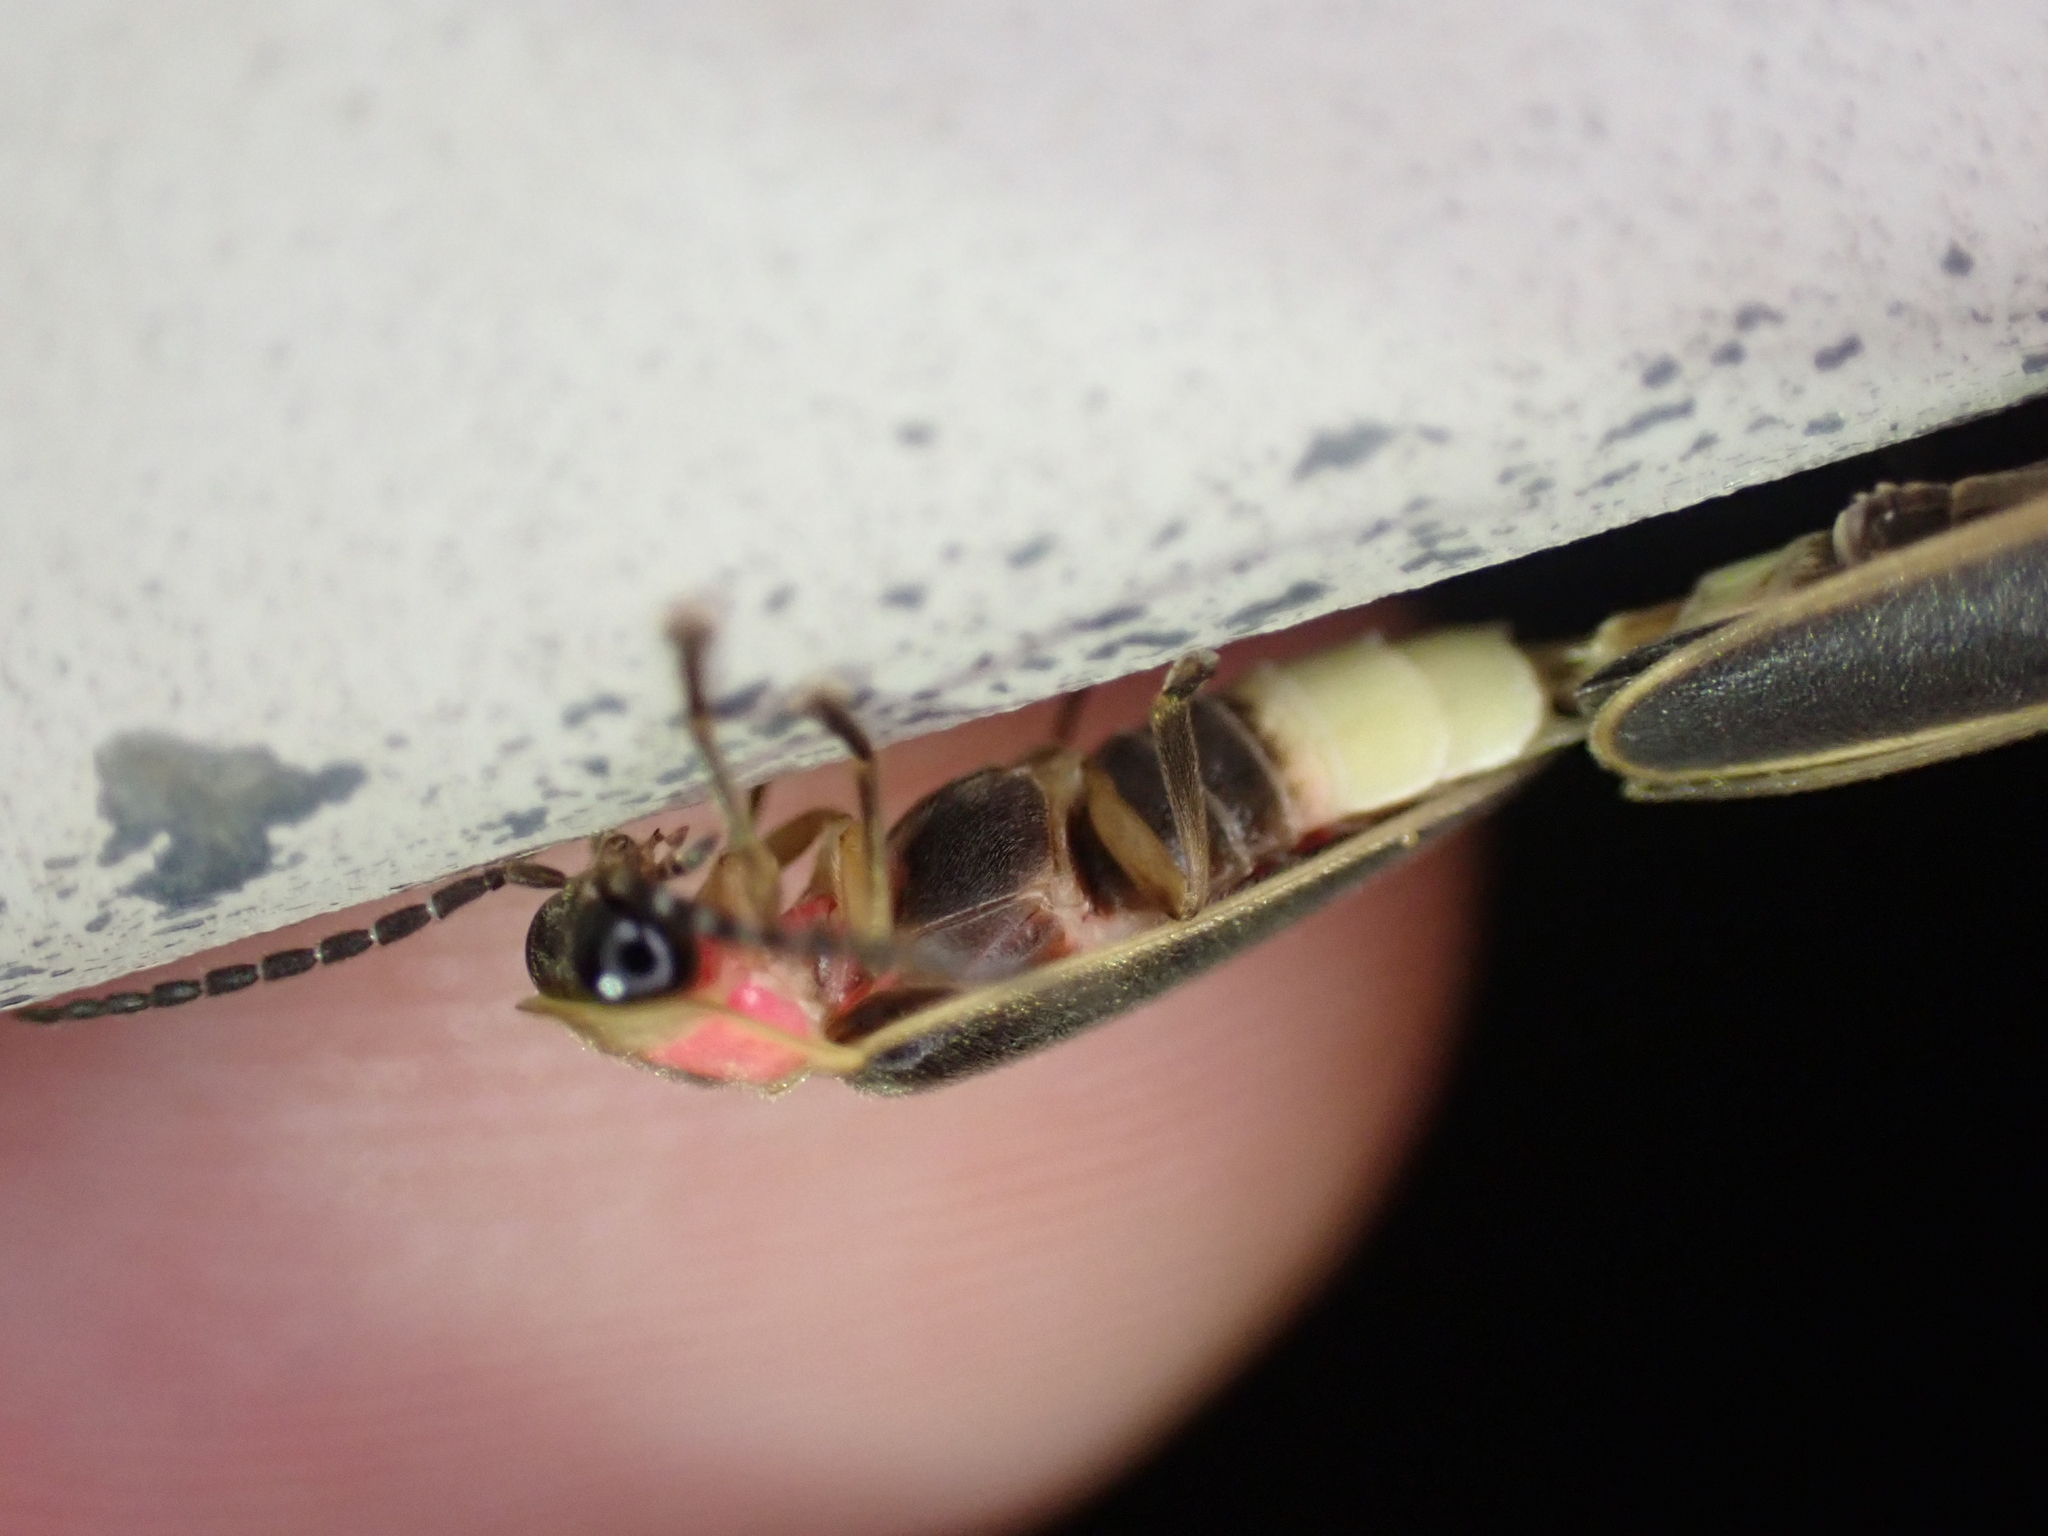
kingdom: Animalia
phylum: Arthropoda
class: Insecta
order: Coleoptera
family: Lampyridae
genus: Photinus
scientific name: Photinus pyralis
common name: Big dipper firefly
